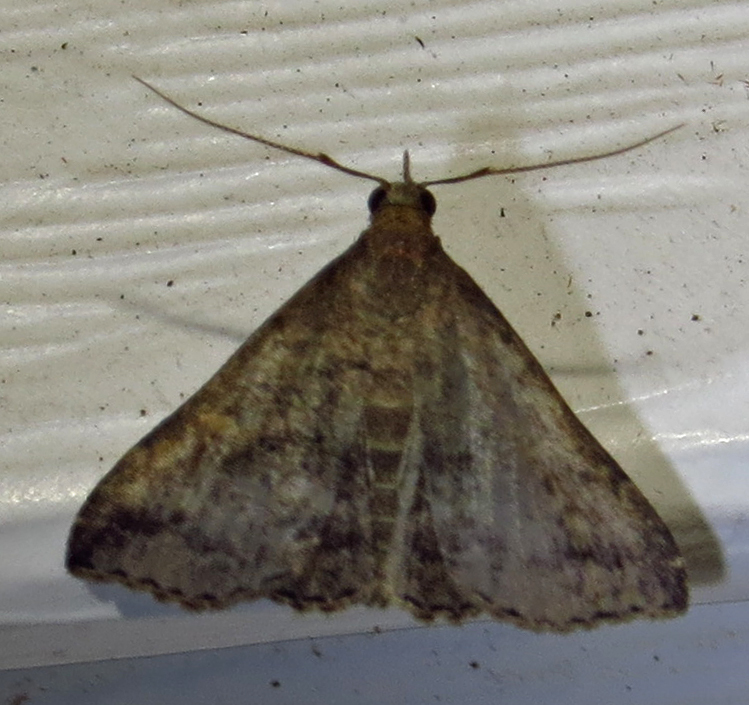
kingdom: Animalia
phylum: Arthropoda
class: Insecta
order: Lepidoptera
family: Erebidae
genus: Tetanolita
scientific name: Tetanolita floridana
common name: Florida tetanolita moth
